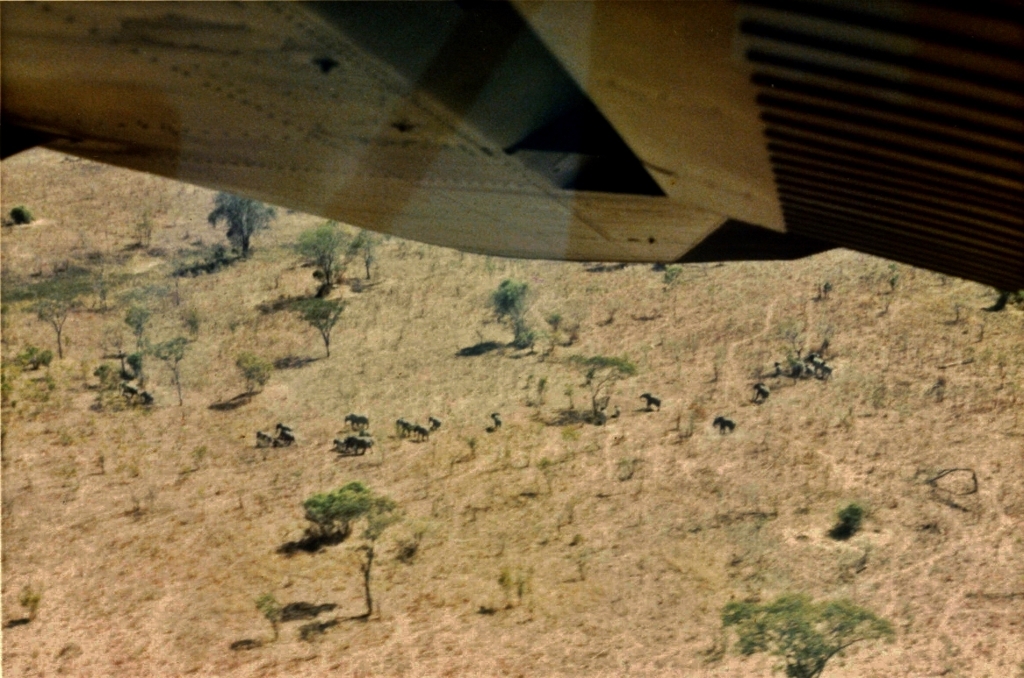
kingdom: Animalia
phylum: Chordata
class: Mammalia
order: Proboscidea
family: Elephantidae
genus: Loxodonta
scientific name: Loxodonta africana
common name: African elephant
